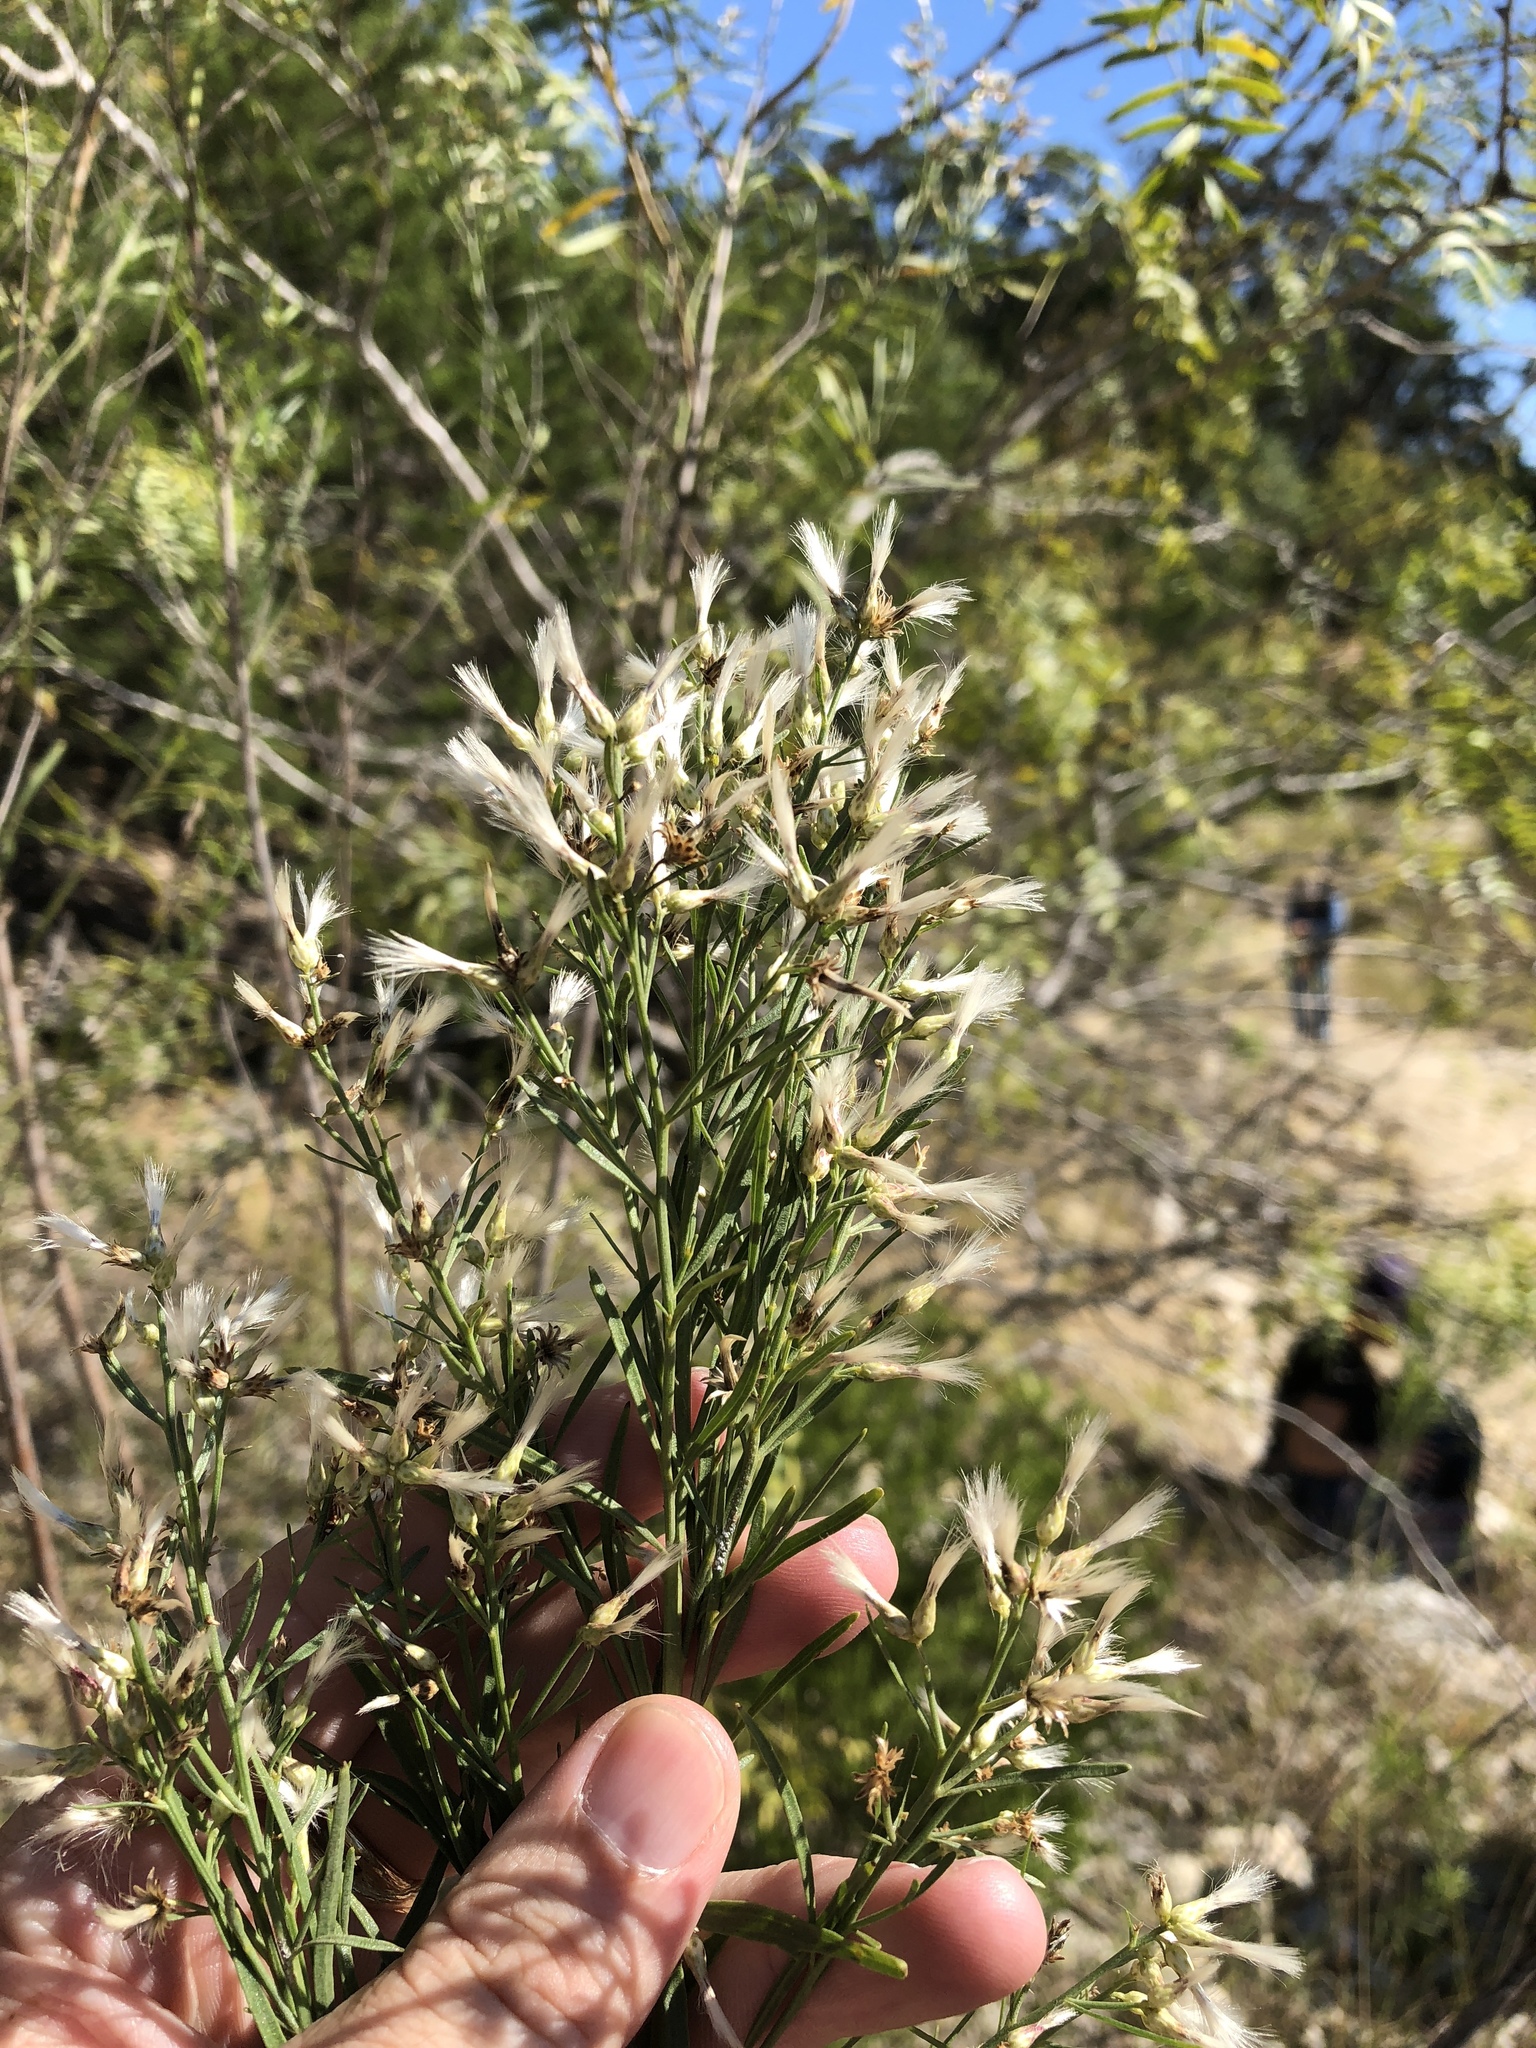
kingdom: Plantae
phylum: Tracheophyta
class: Magnoliopsida
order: Asterales
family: Asteraceae
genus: Baccharis
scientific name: Baccharis salicina
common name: Willow baccharis
